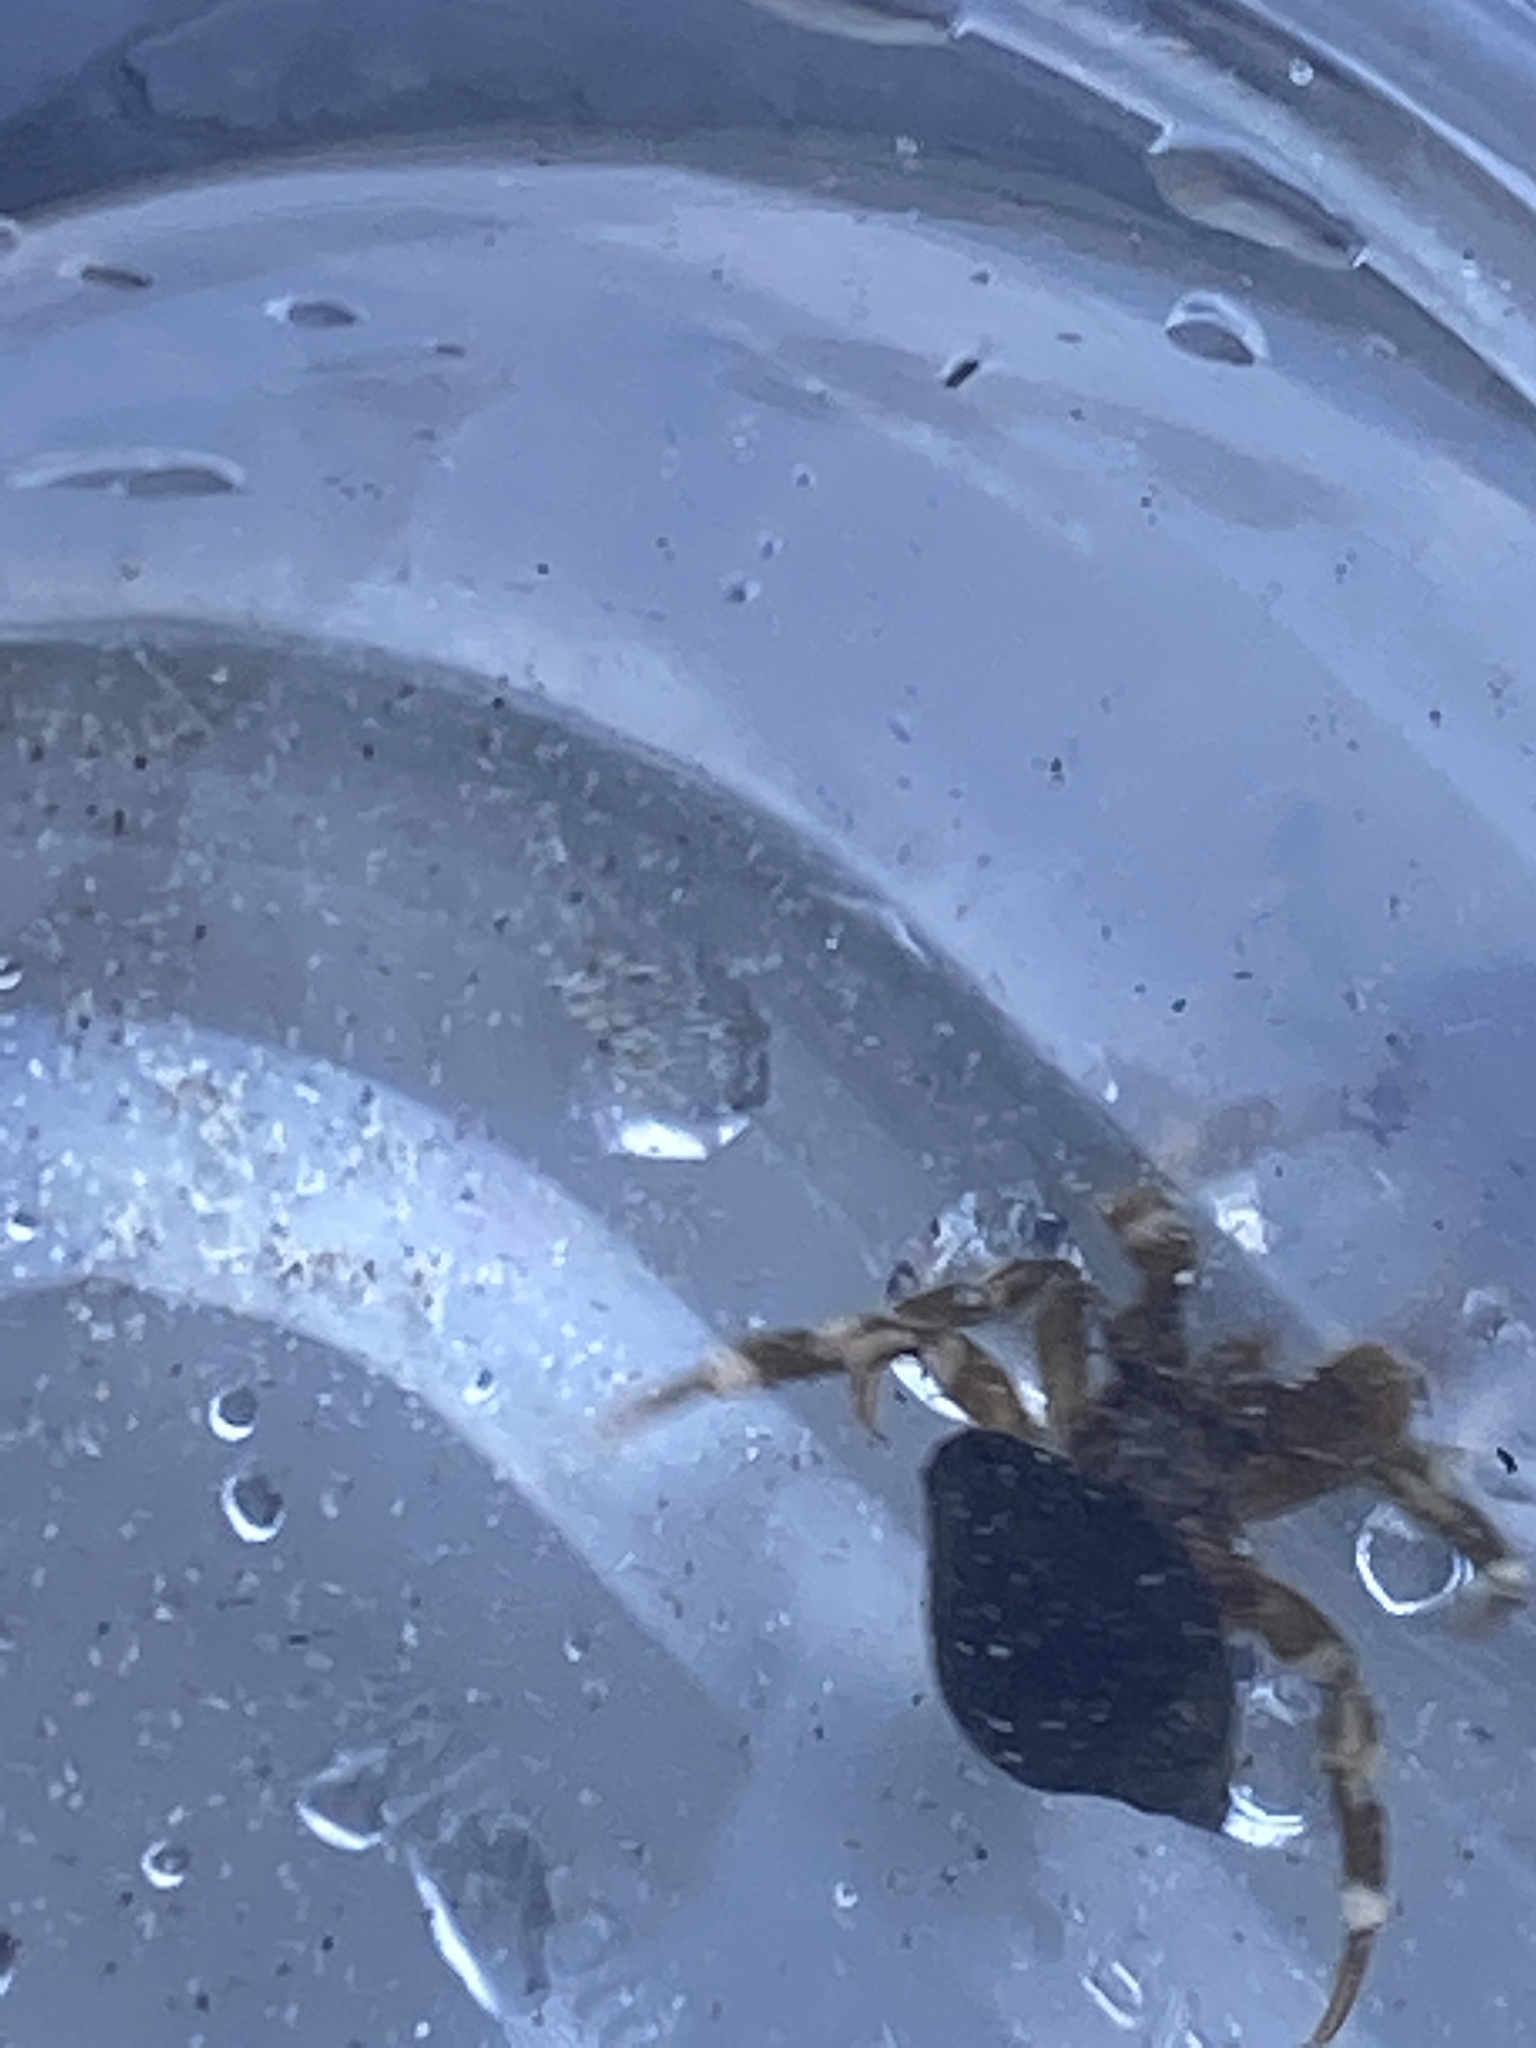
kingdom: Animalia
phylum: Arthropoda
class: Malacostraca
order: Decapoda
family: Paguridae
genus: Pagurus
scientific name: Pagurus hirsutiusculus
